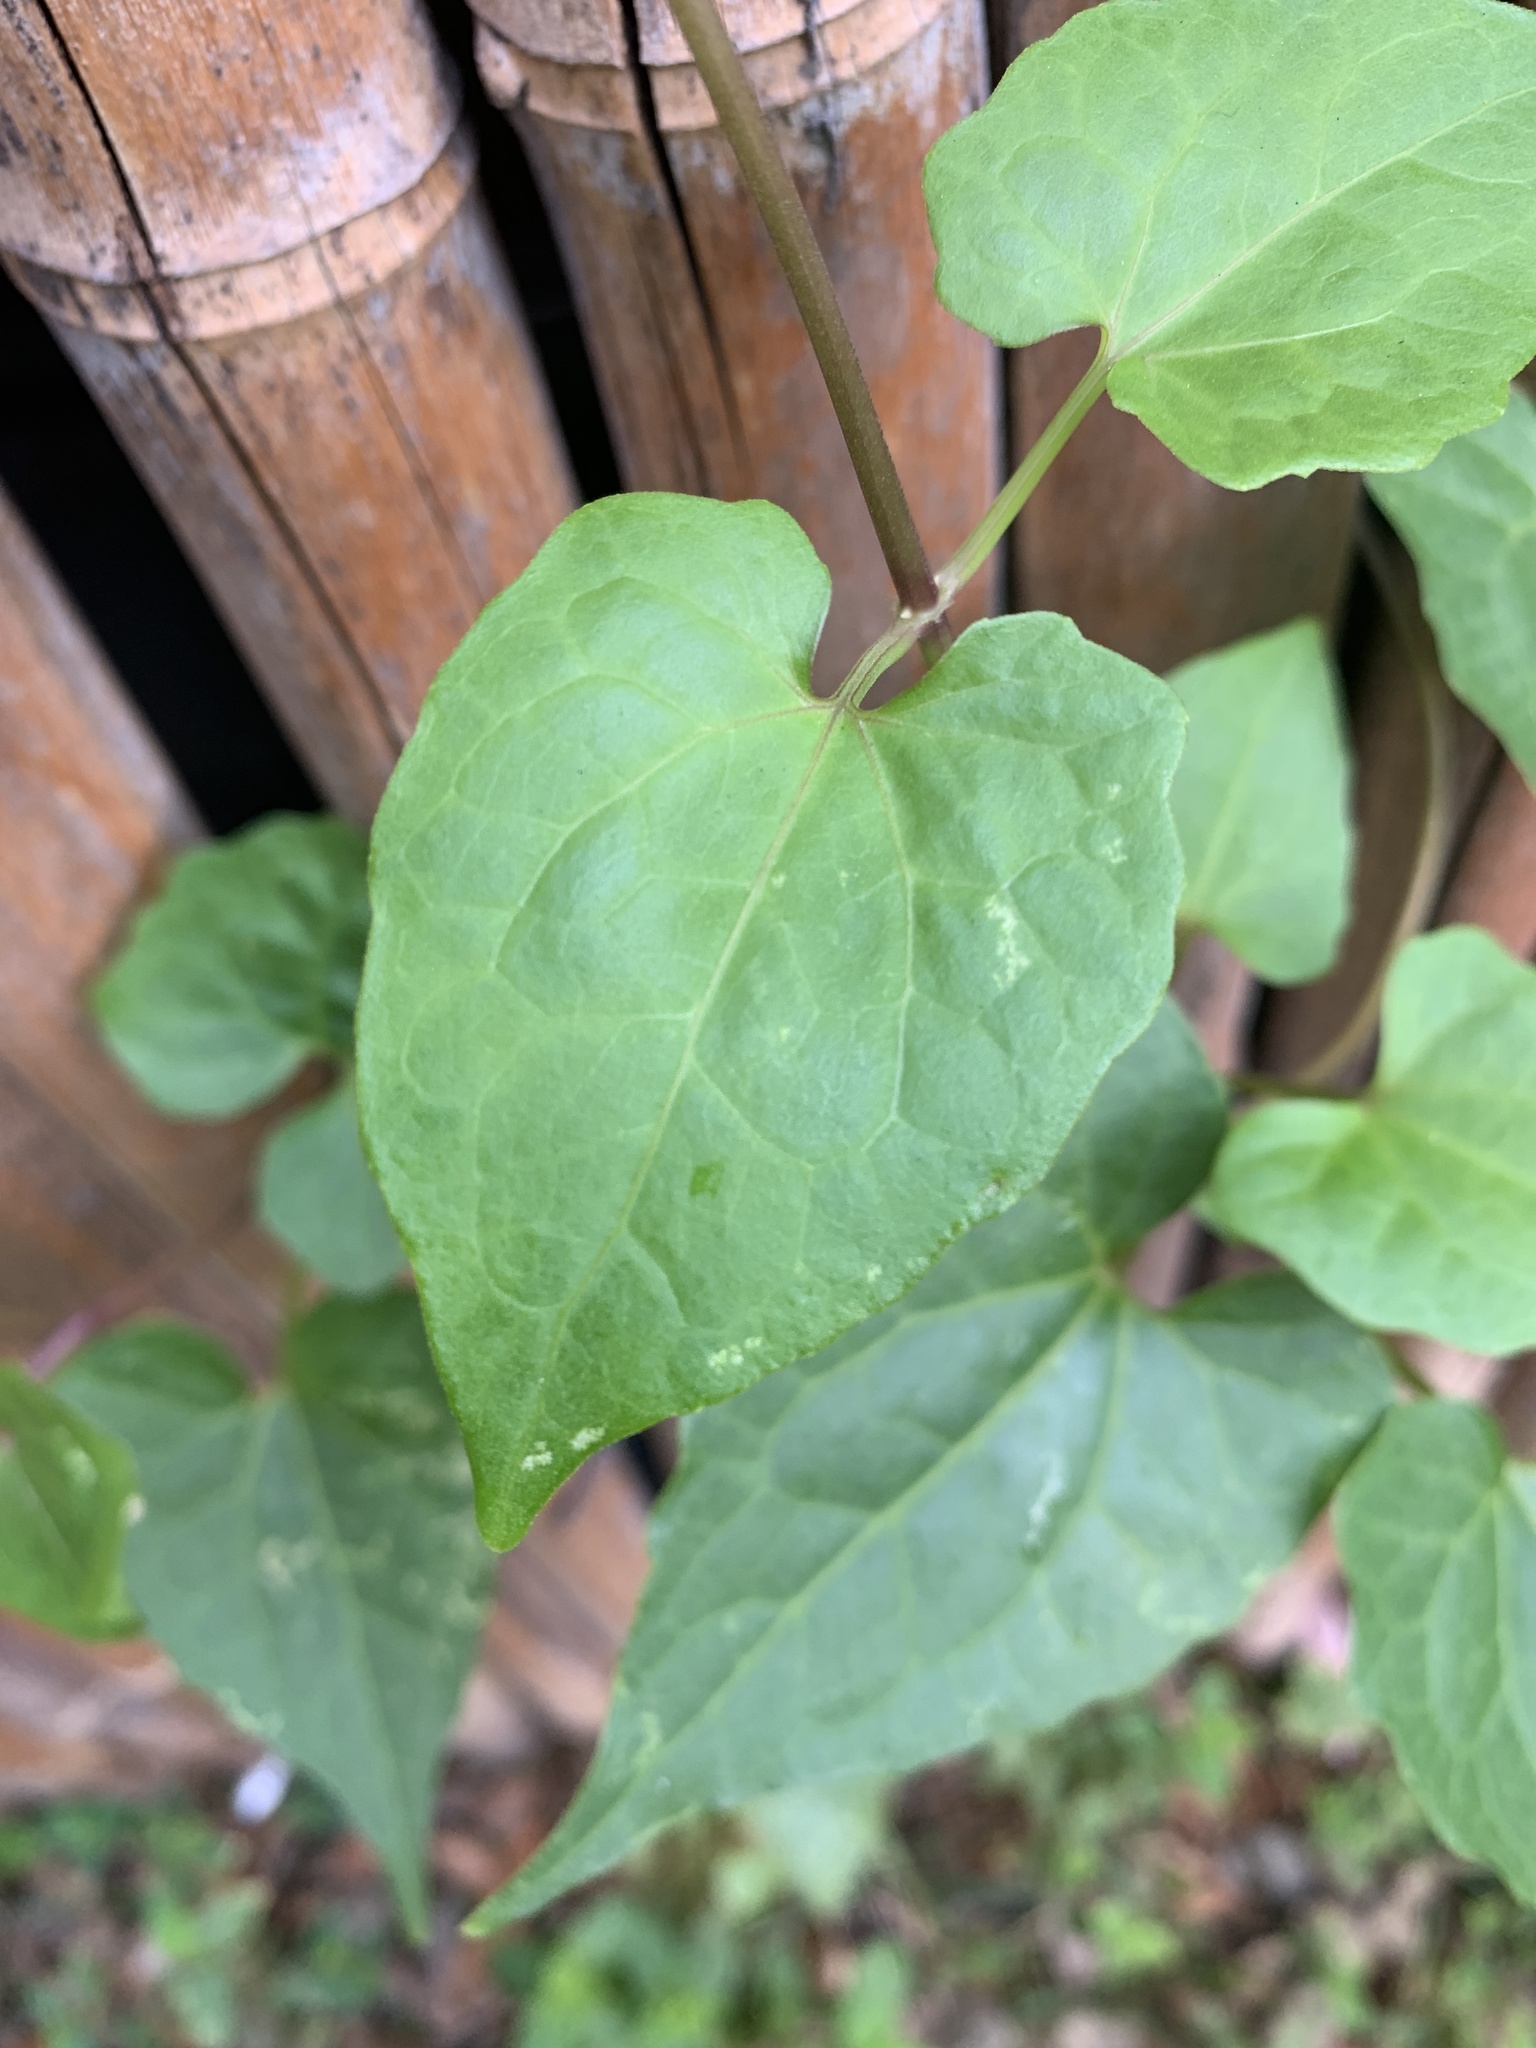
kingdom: Plantae
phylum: Tracheophyta
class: Magnoliopsida
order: Asterales
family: Asteraceae
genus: Mikania
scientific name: Mikania micrantha
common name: Mile-a-minute
